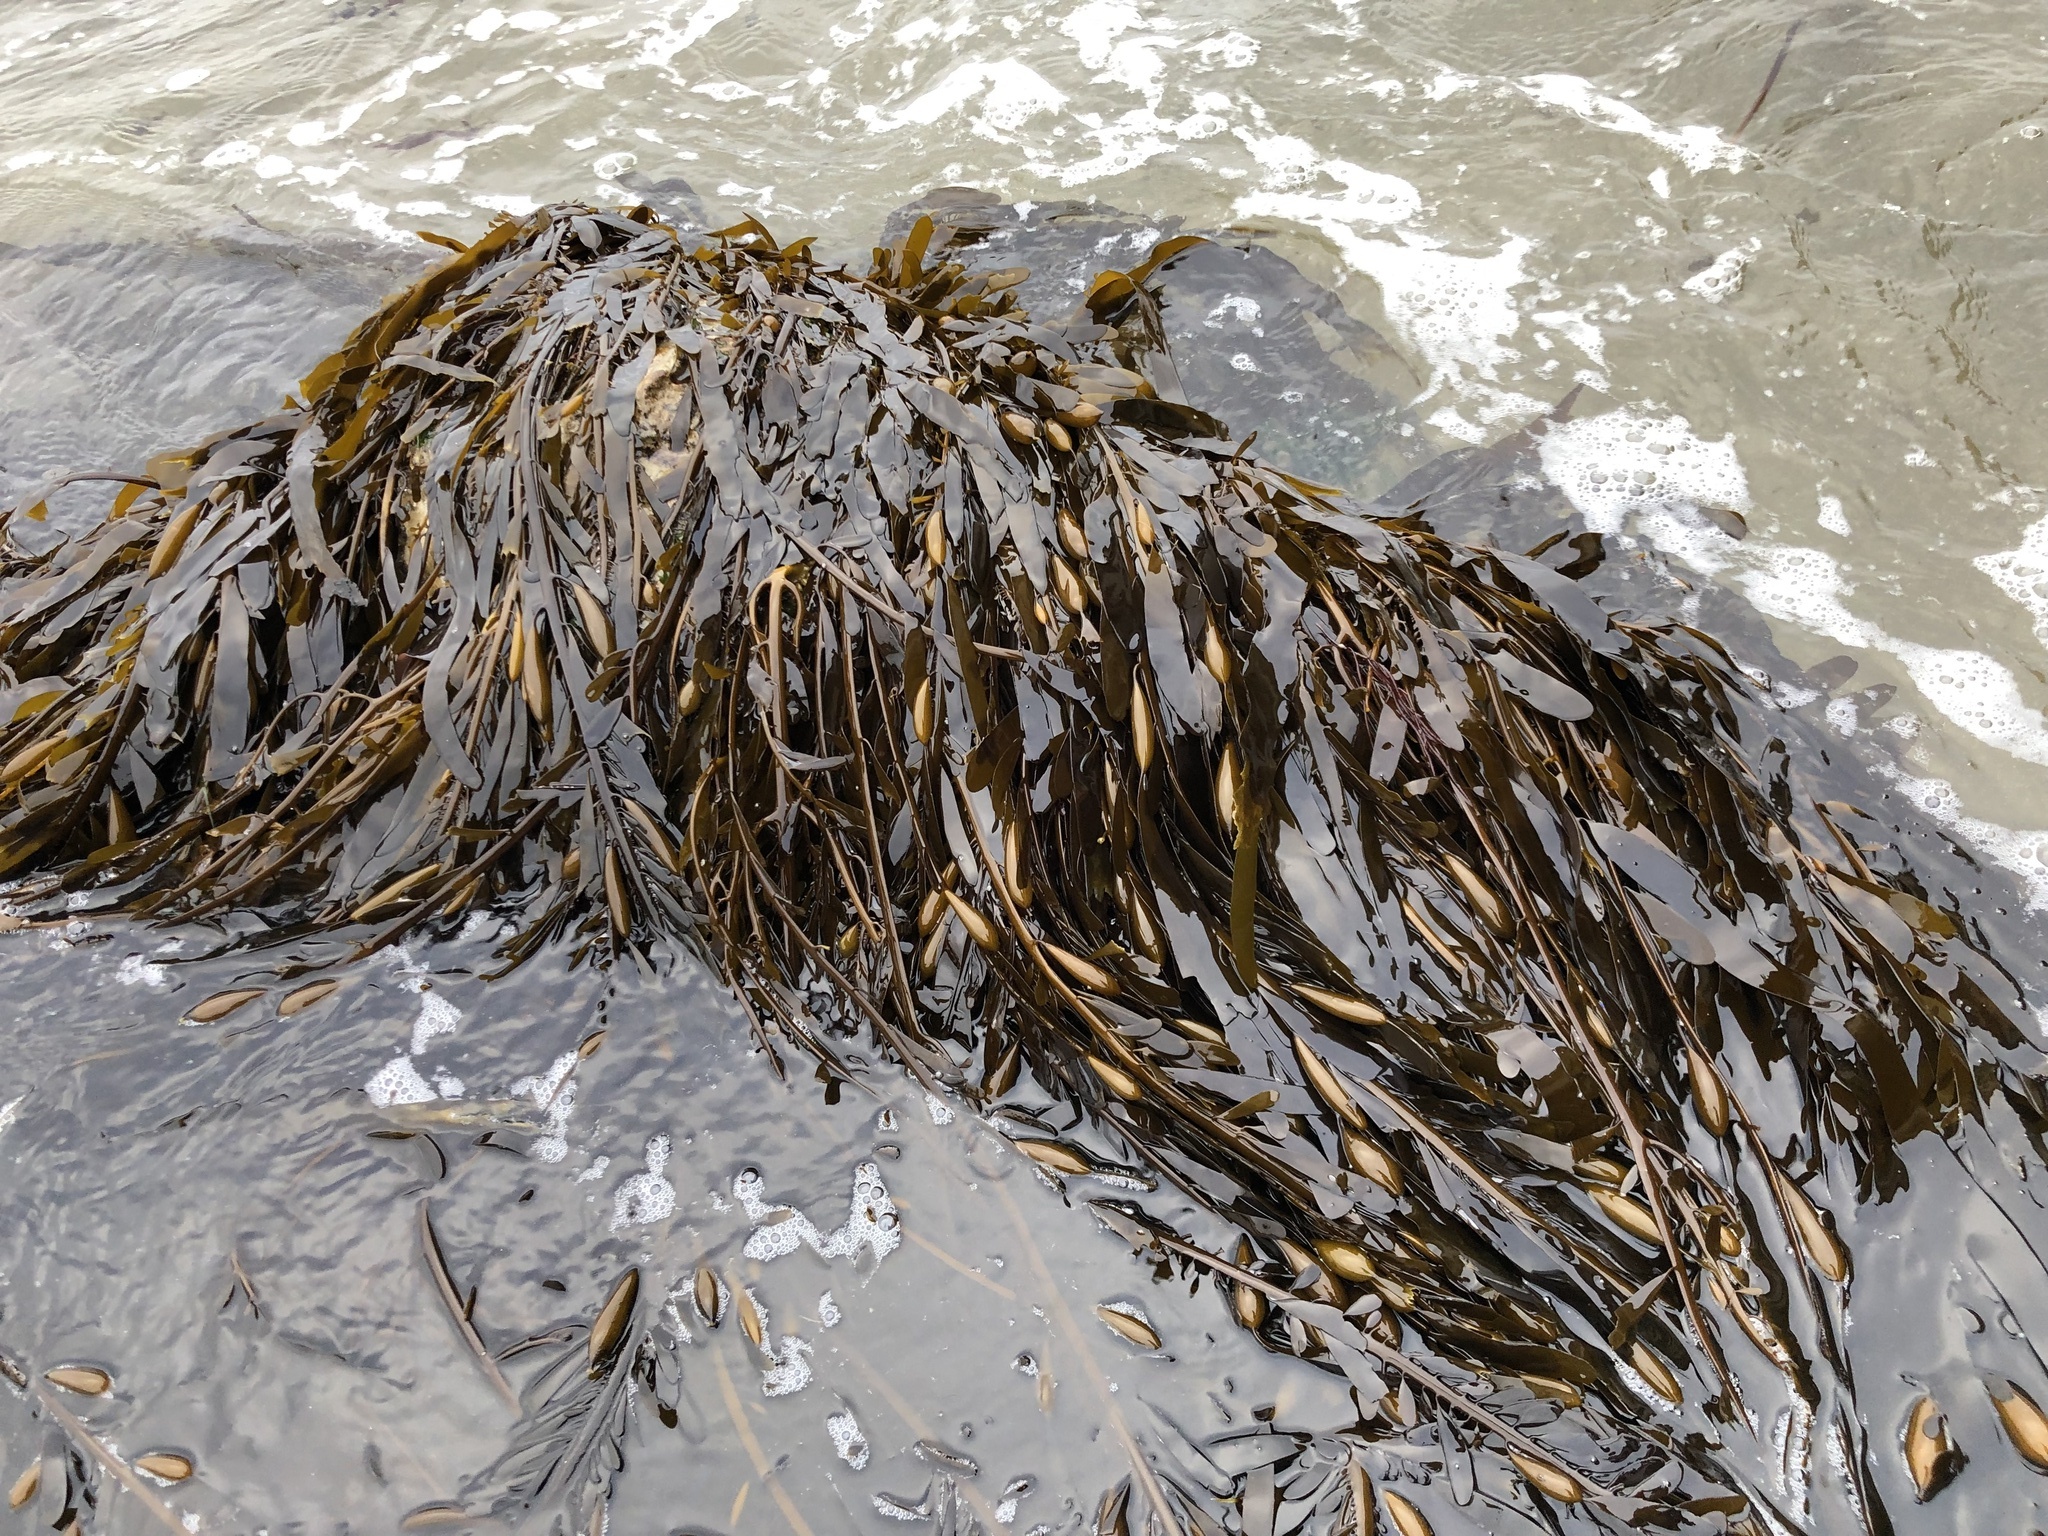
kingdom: Chromista
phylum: Ochrophyta
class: Phaeophyceae
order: Laminariales
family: Lessoniaceae
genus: Egregia
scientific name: Egregia menziesii
